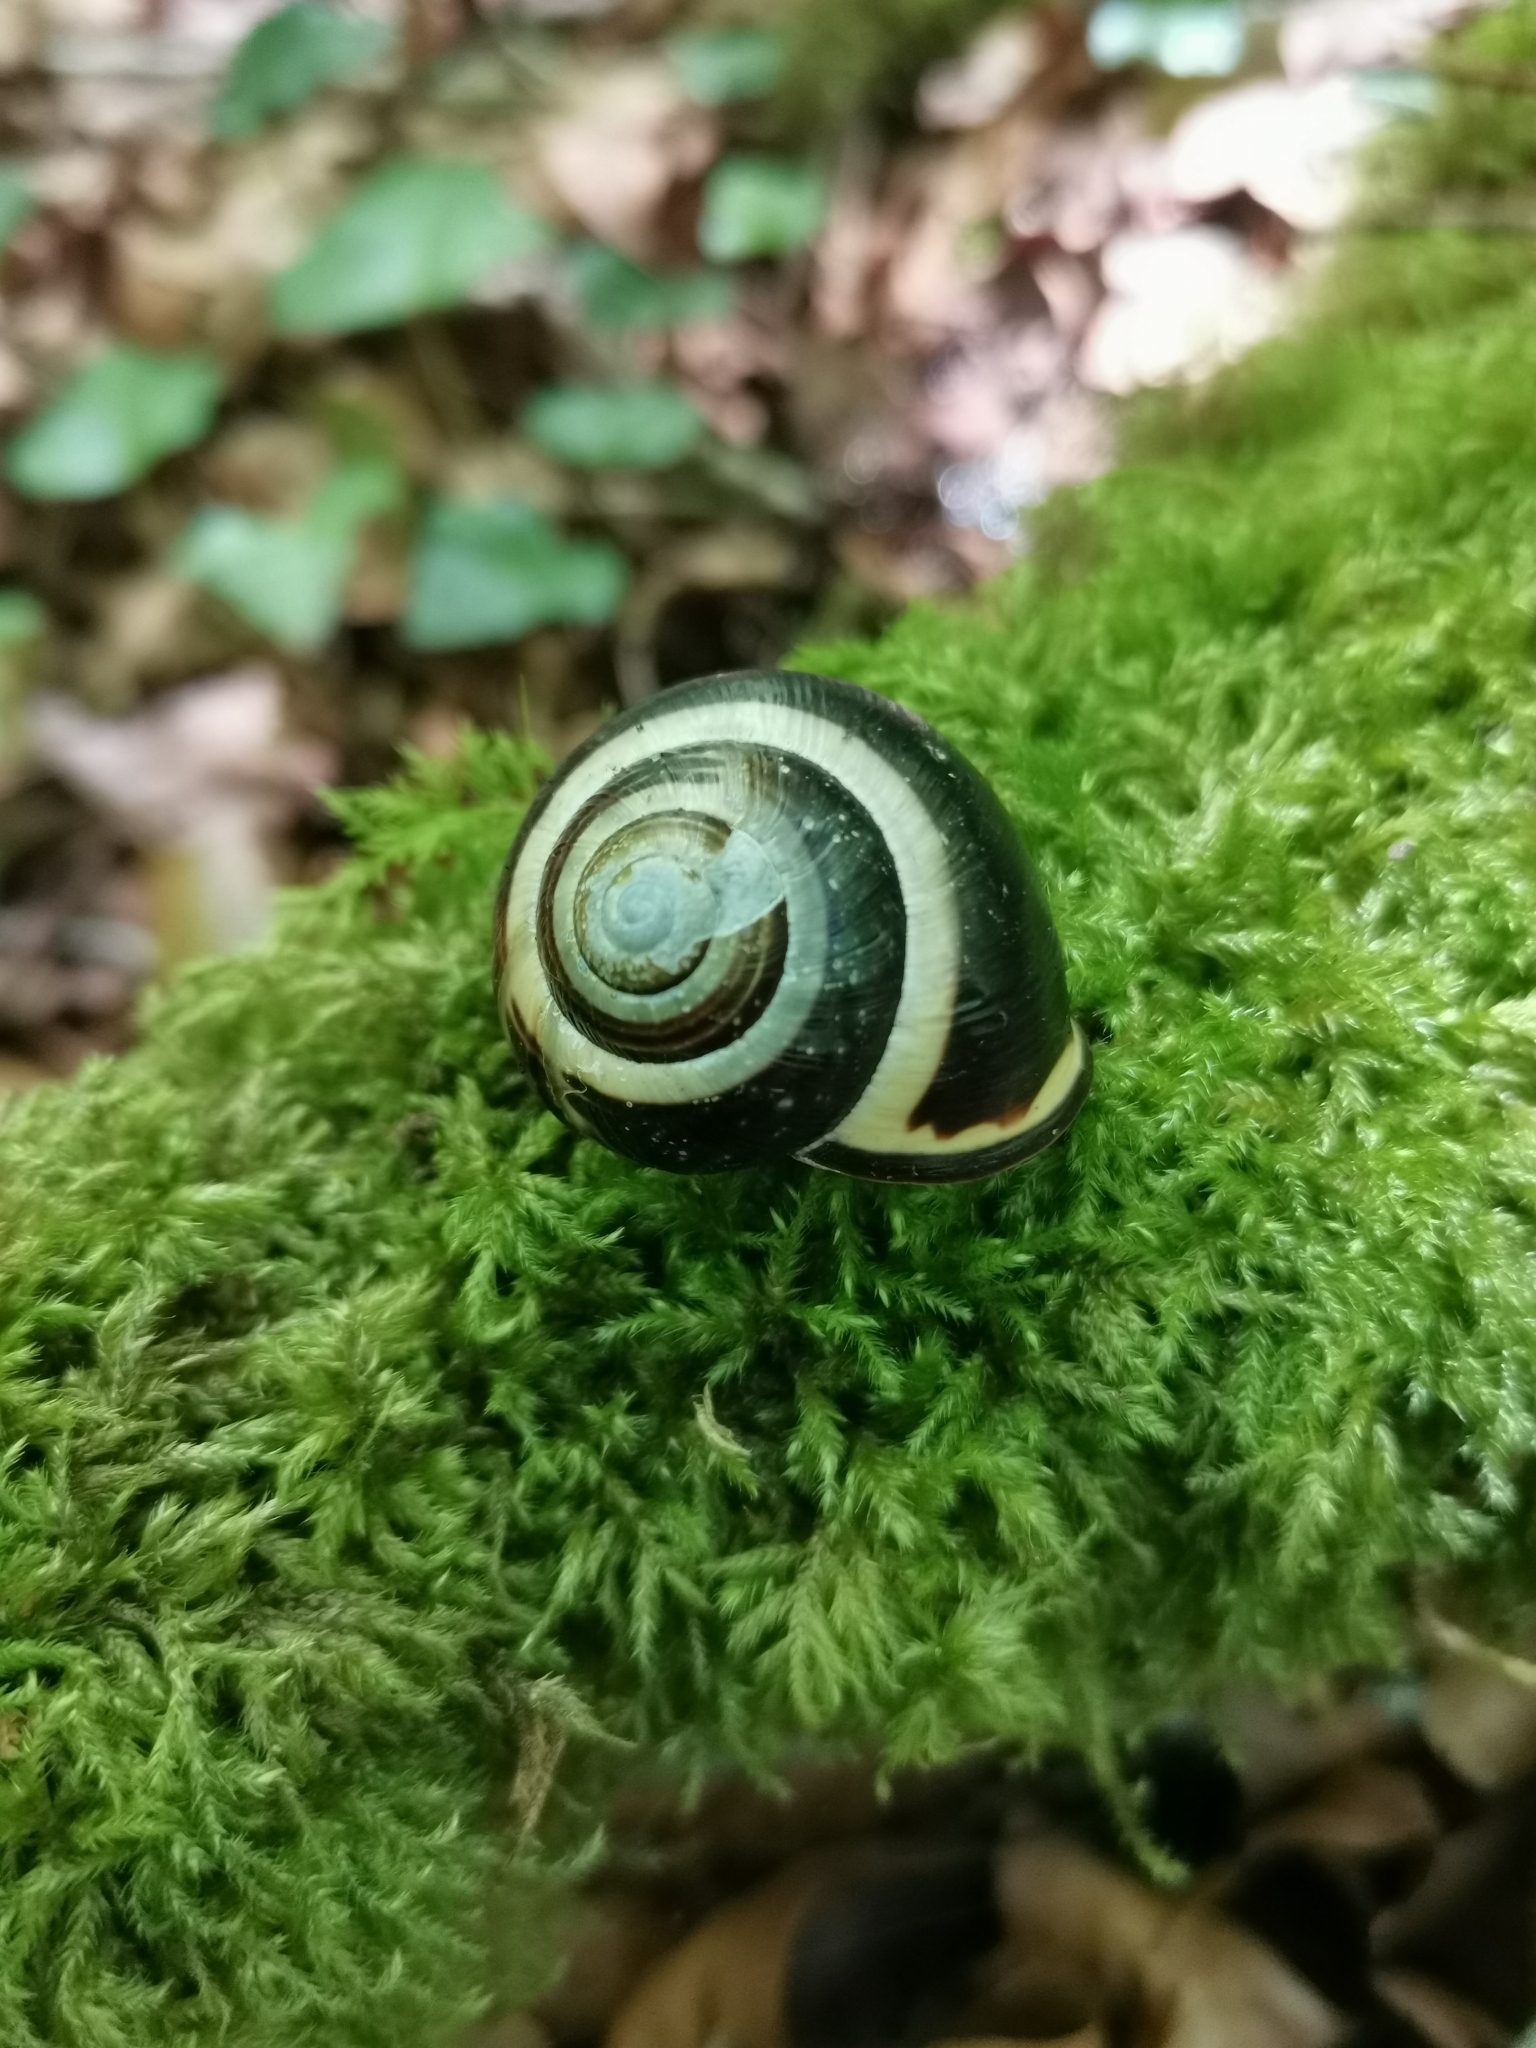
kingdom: Animalia
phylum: Mollusca
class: Gastropoda
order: Stylommatophora
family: Helicidae
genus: Cepaea
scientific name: Cepaea nemoralis
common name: Grovesnail
